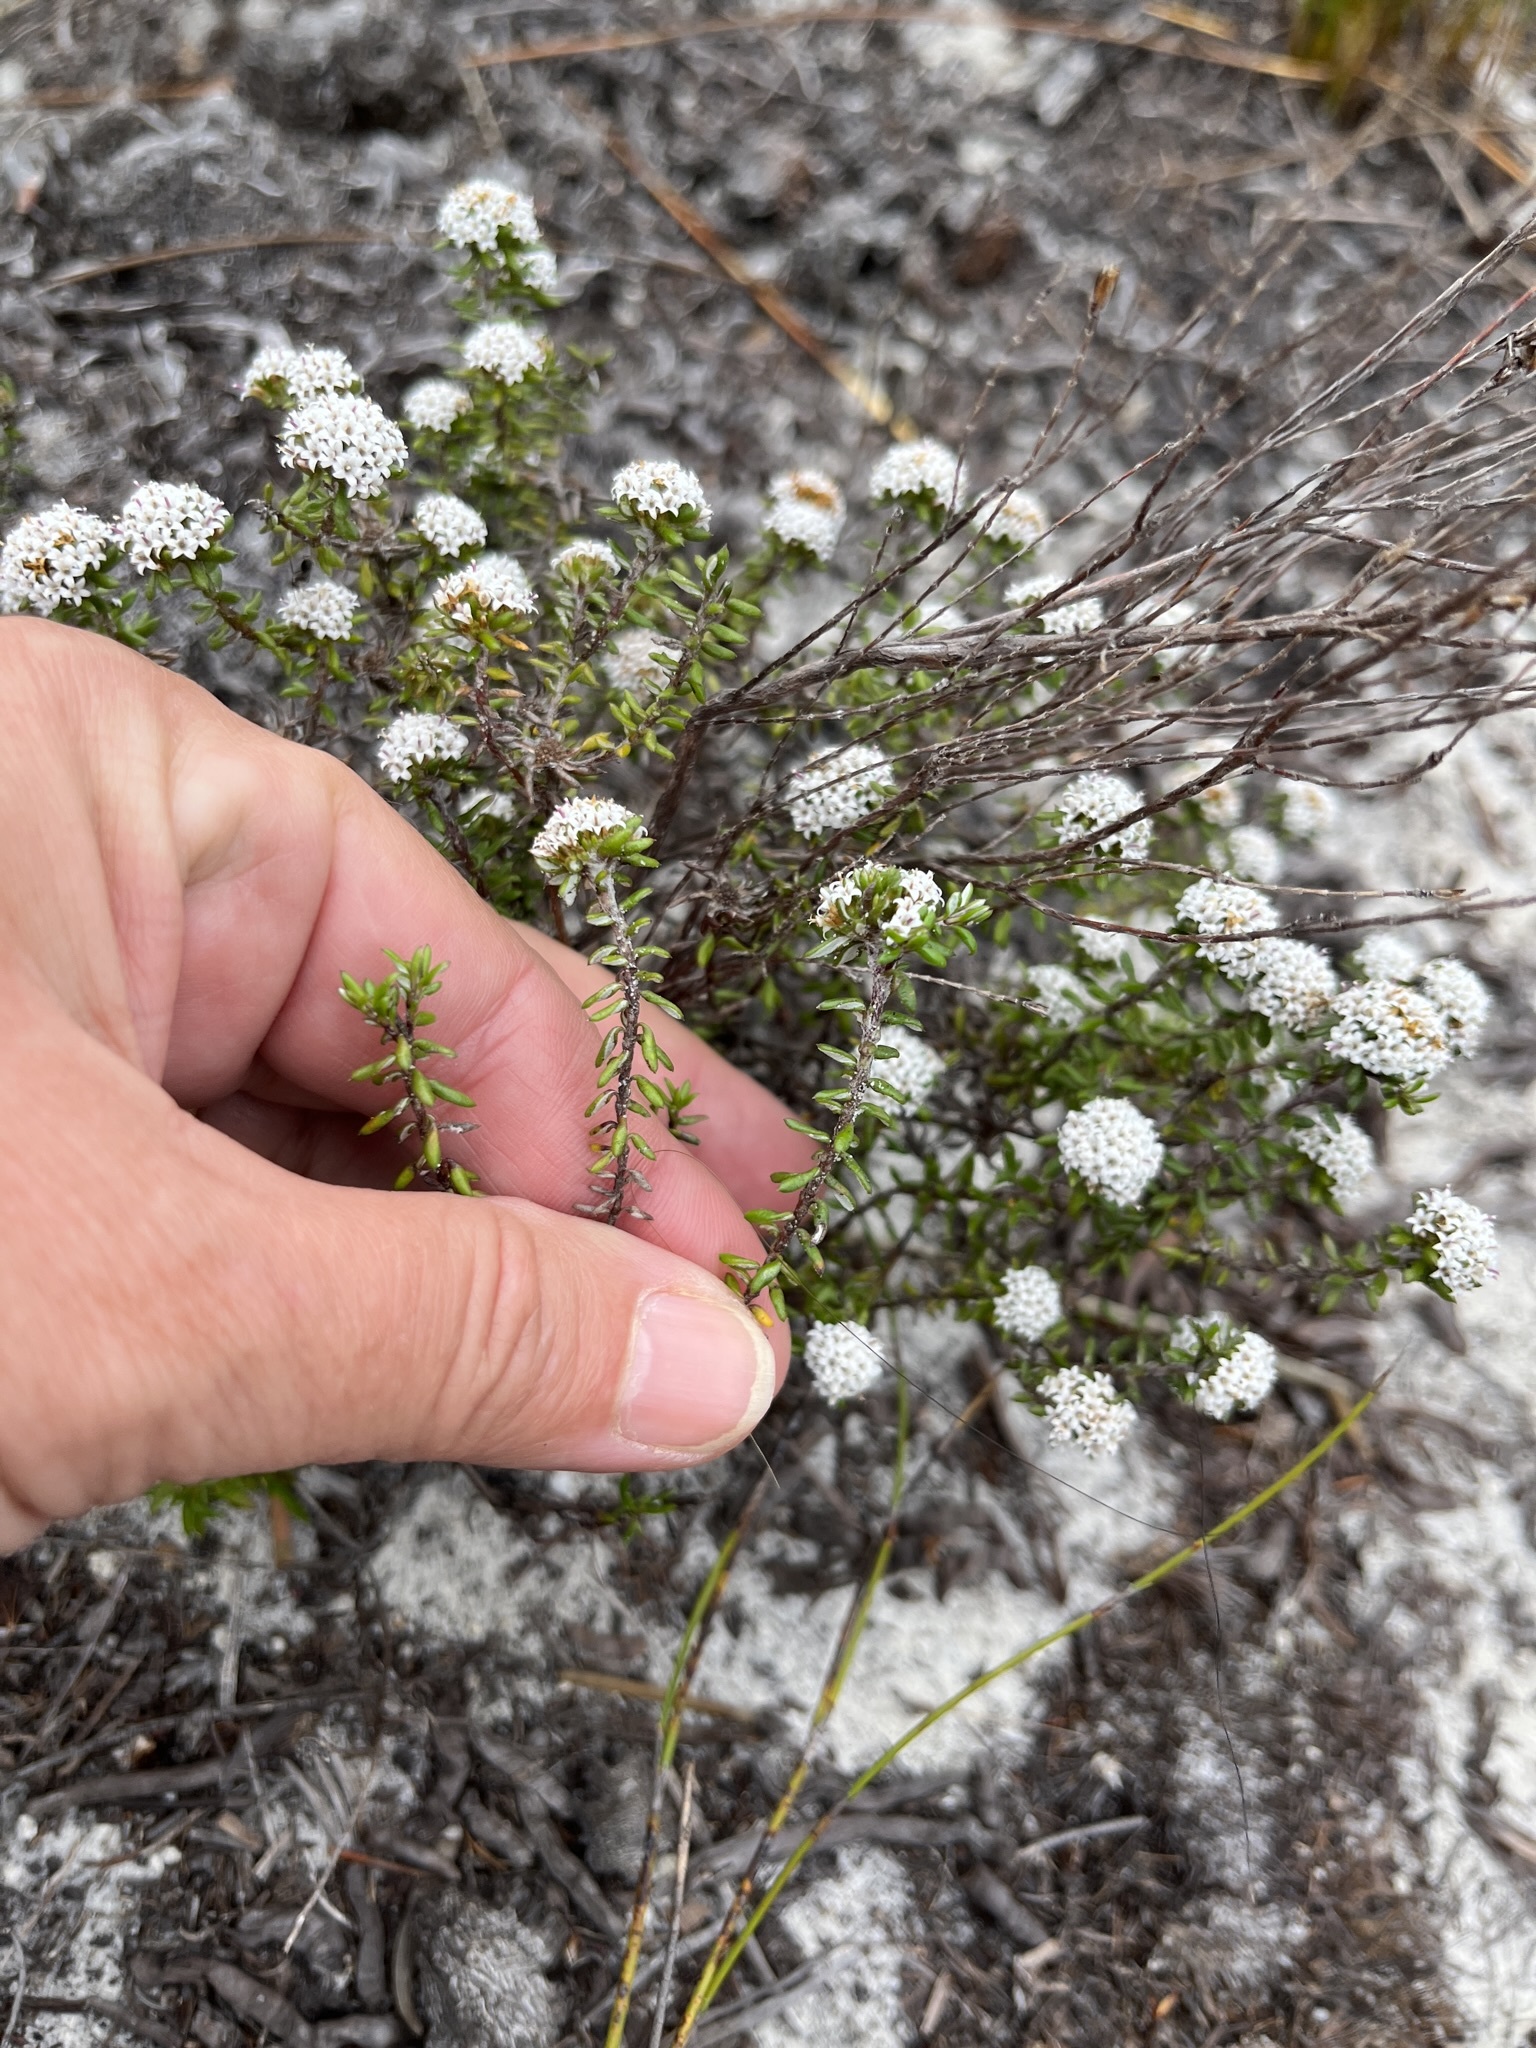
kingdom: Plantae
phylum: Tracheophyta
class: Magnoliopsida
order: Asterales
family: Asteraceae
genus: Stoebe
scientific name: Stoebe cyathuloides
